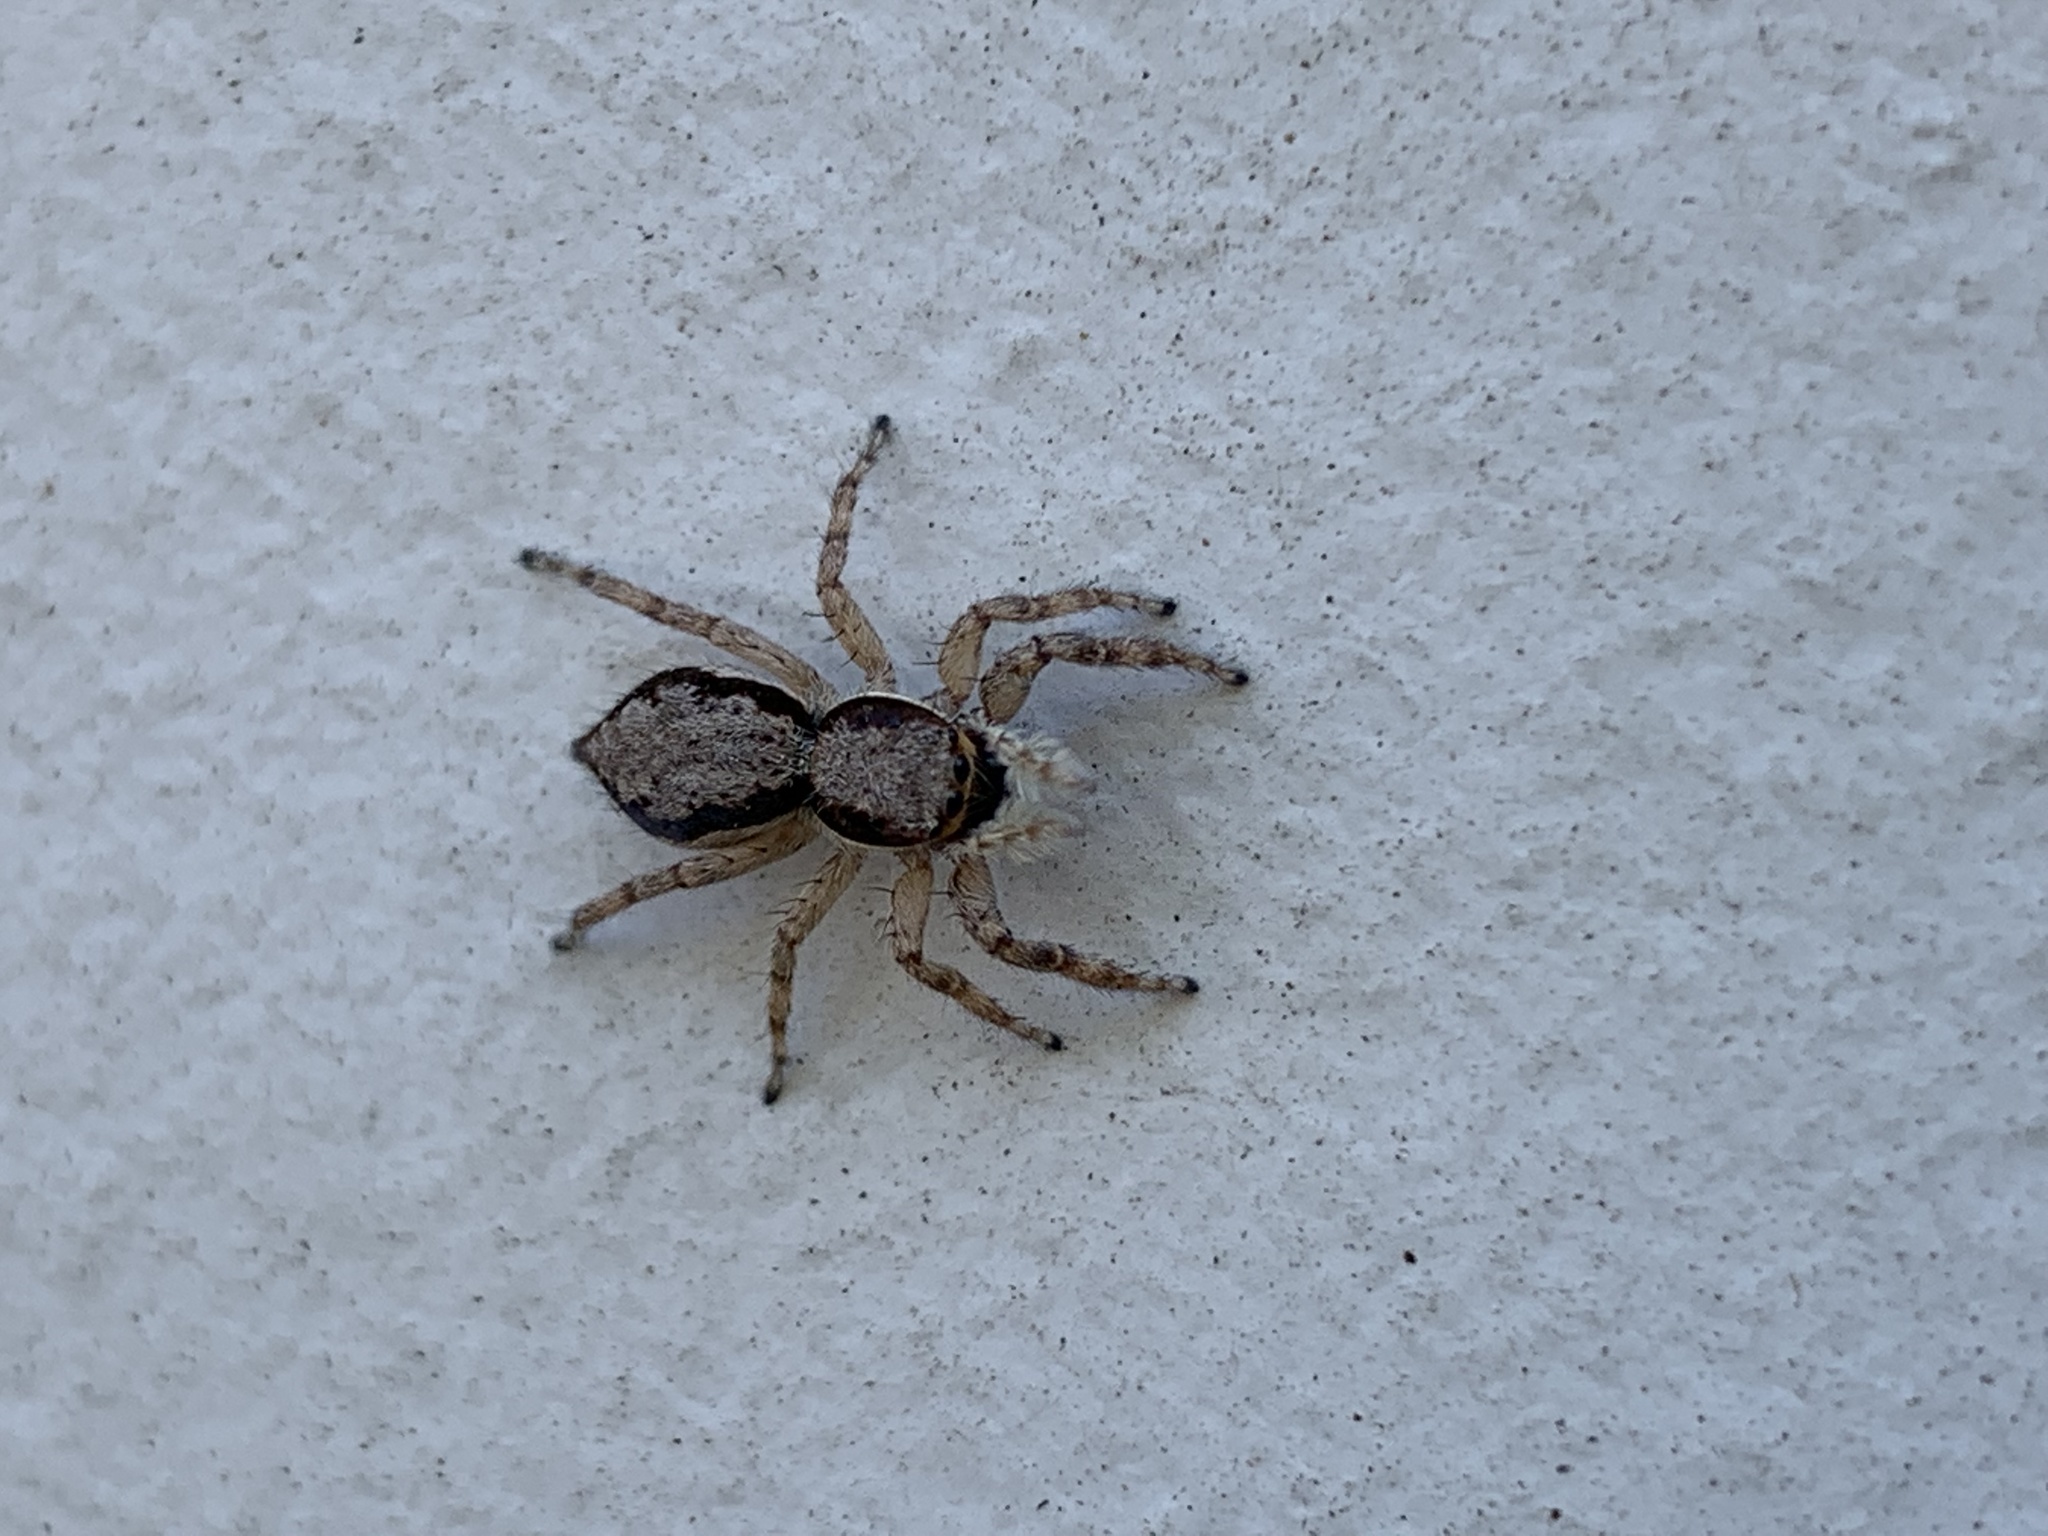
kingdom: Animalia
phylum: Arthropoda
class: Arachnida
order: Araneae
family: Salticidae
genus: Menemerus
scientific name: Menemerus bivittatus
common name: Gray wall jumper
